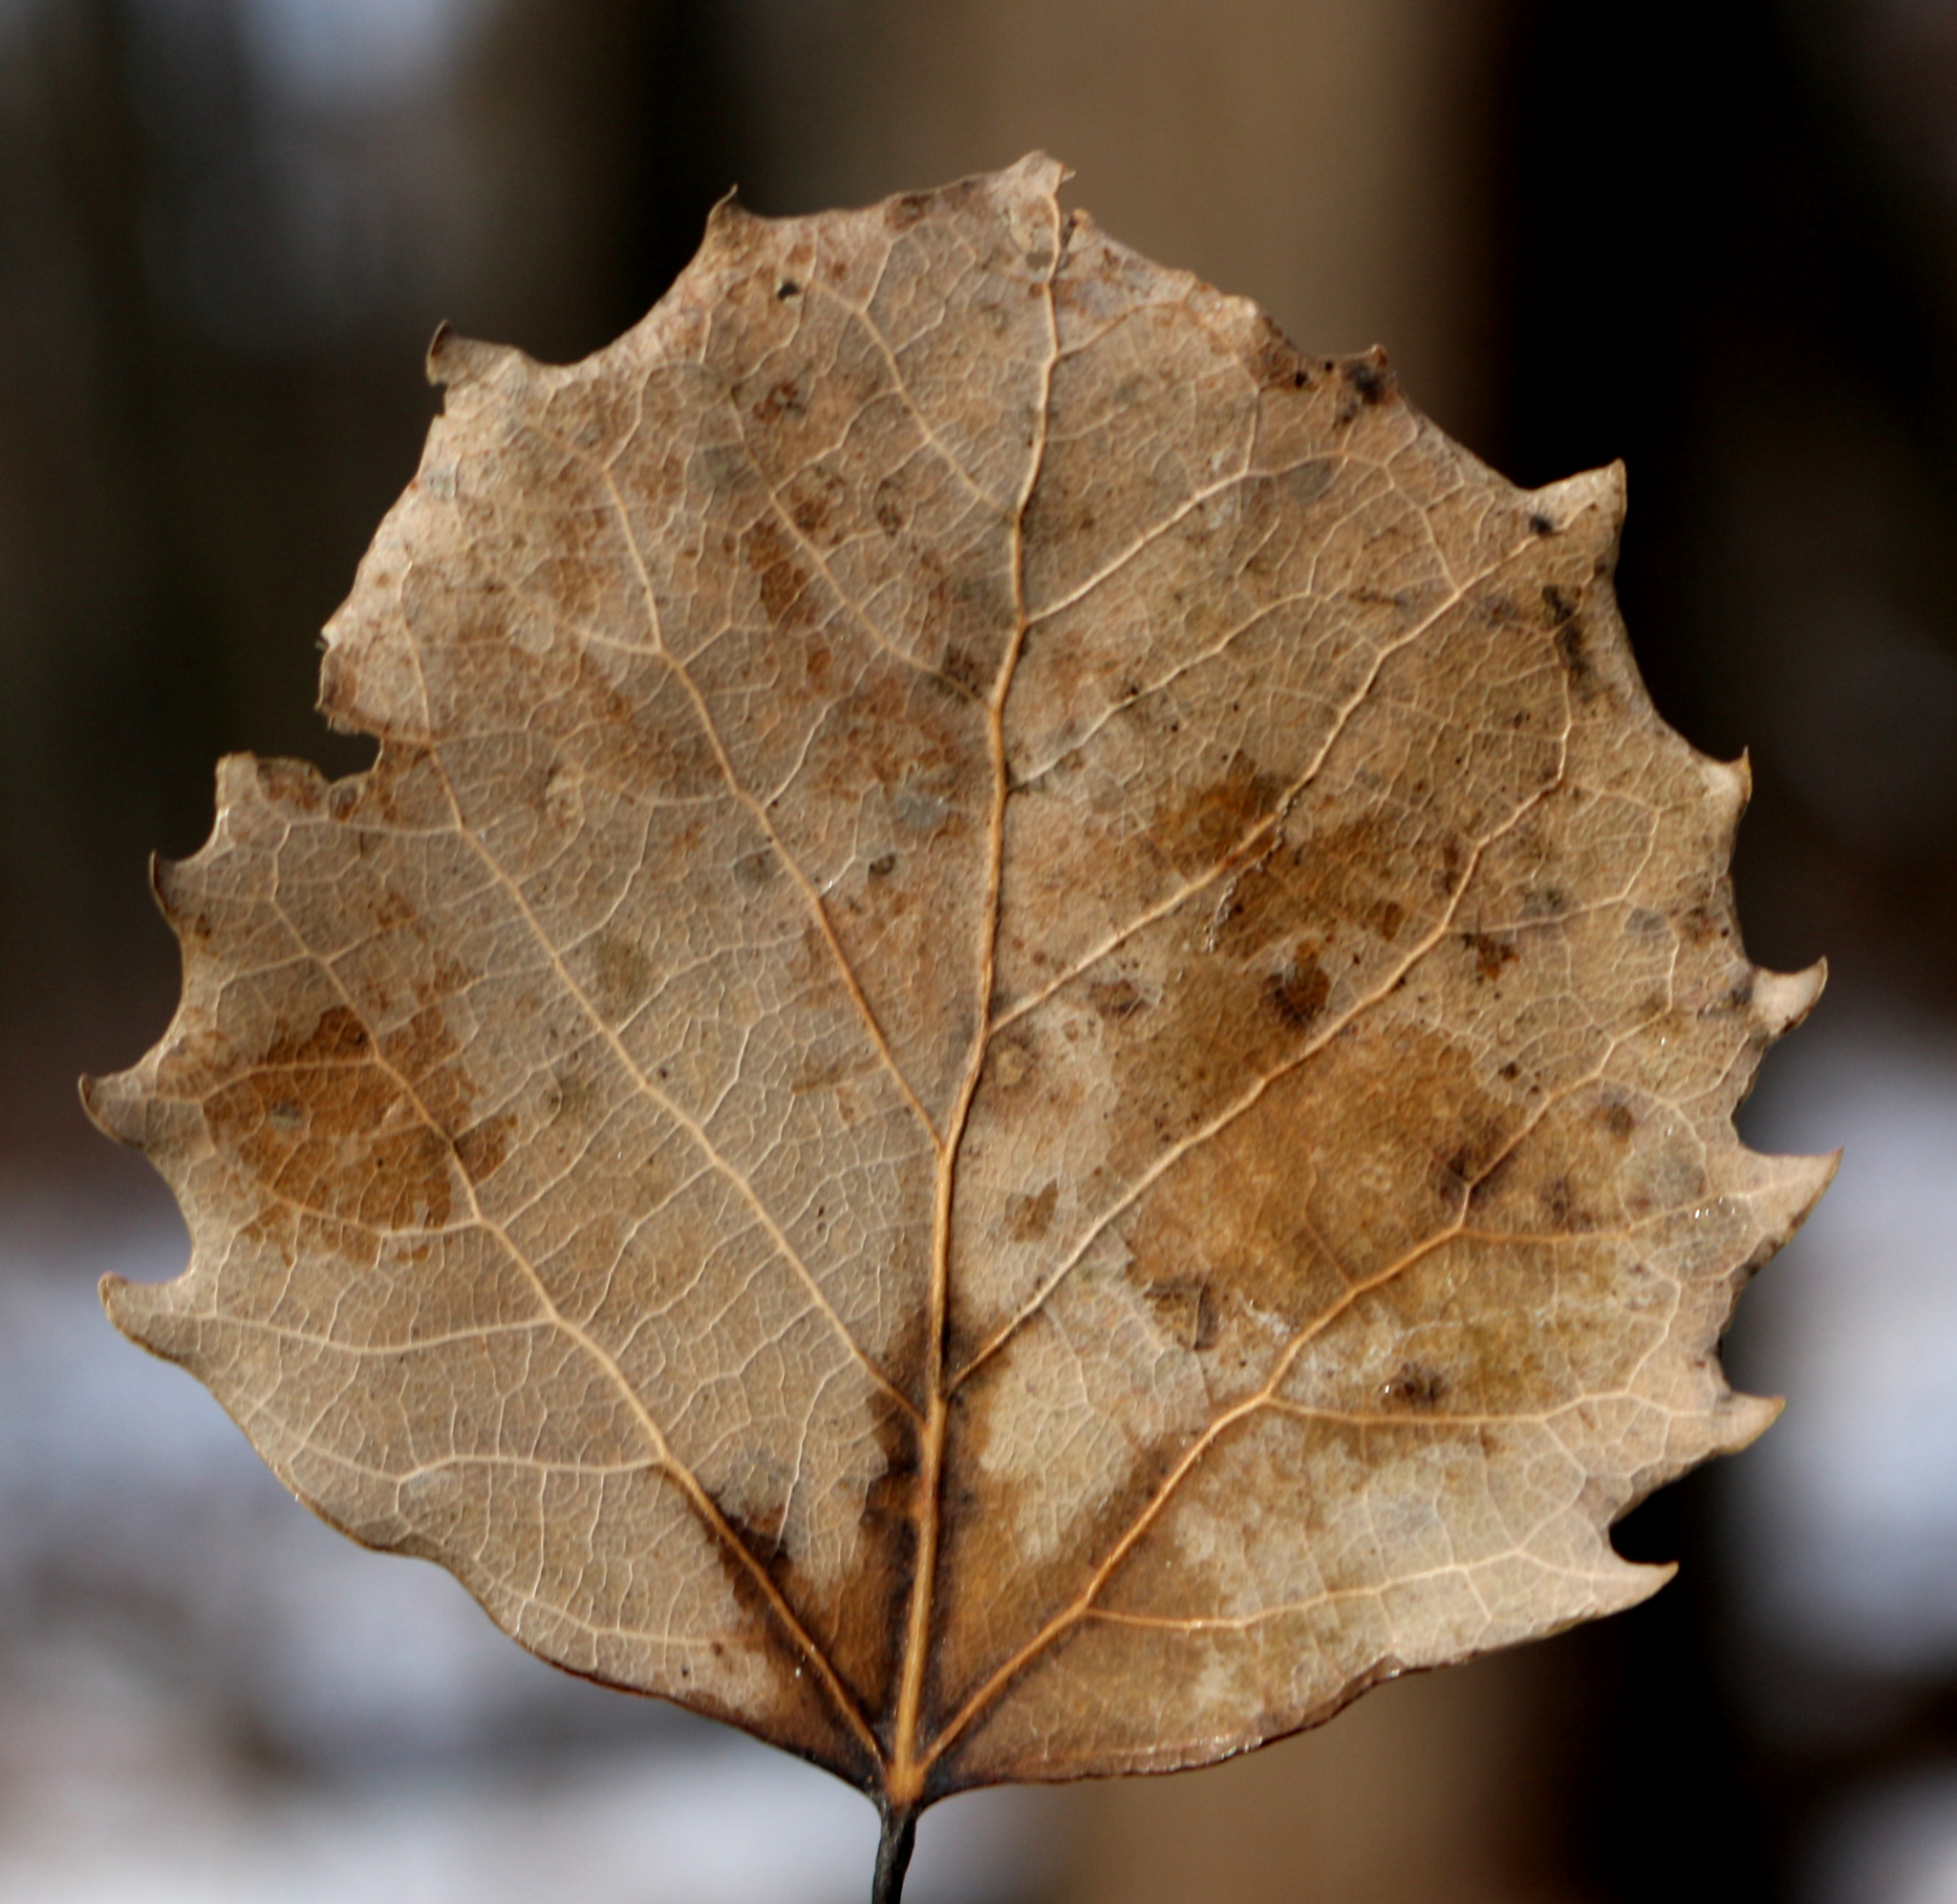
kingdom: Plantae
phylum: Tracheophyta
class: Magnoliopsida
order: Malpighiales
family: Salicaceae
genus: Populus
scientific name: Populus grandidentata
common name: Bigtooth aspen
